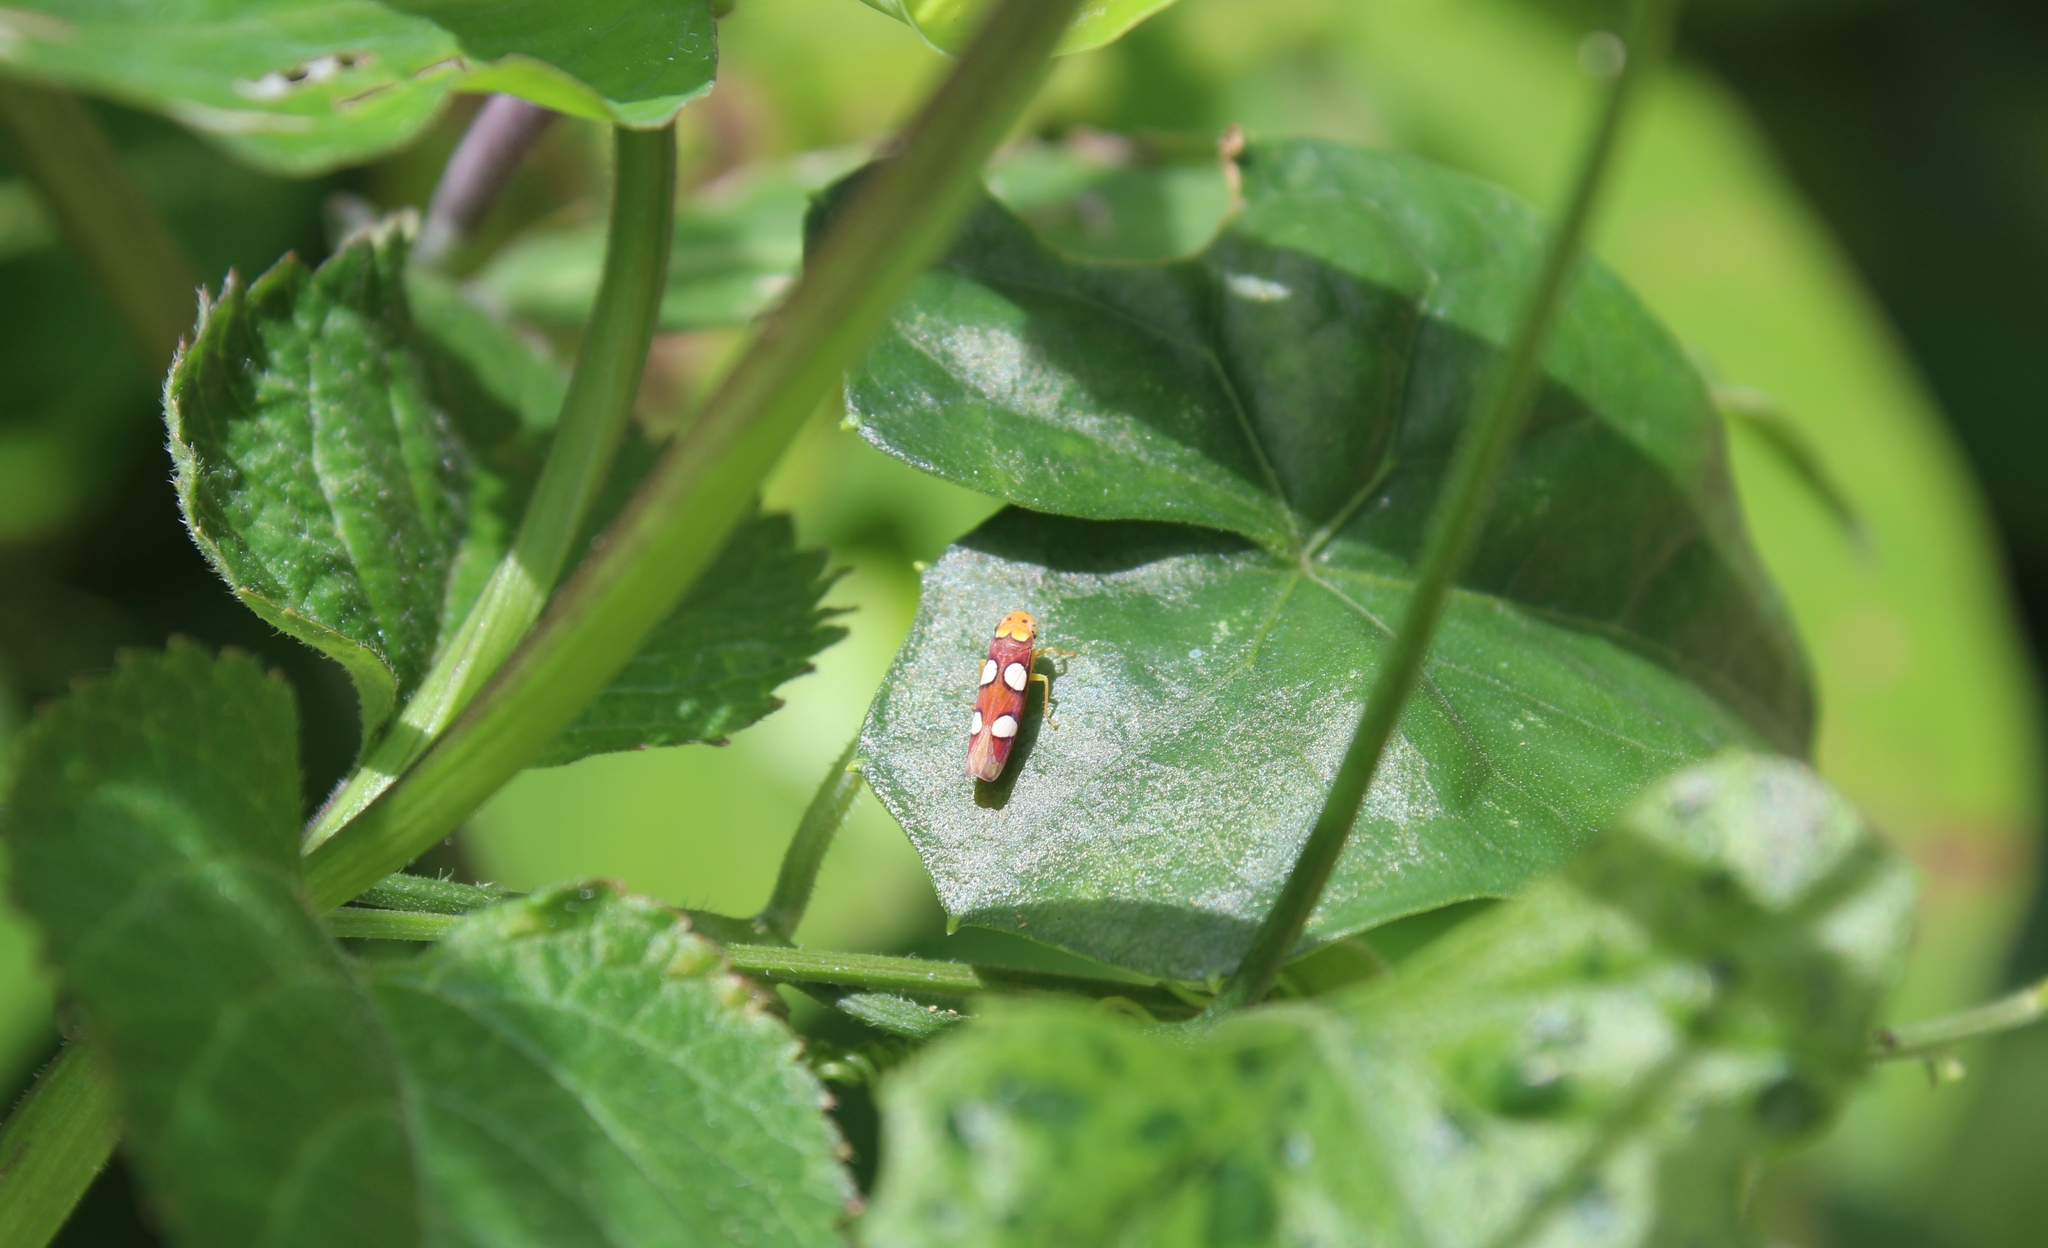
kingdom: Animalia
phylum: Arthropoda
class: Insecta
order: Hemiptera
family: Cicadellidae
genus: Erythrogonia
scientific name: Erythrogonia laudata
